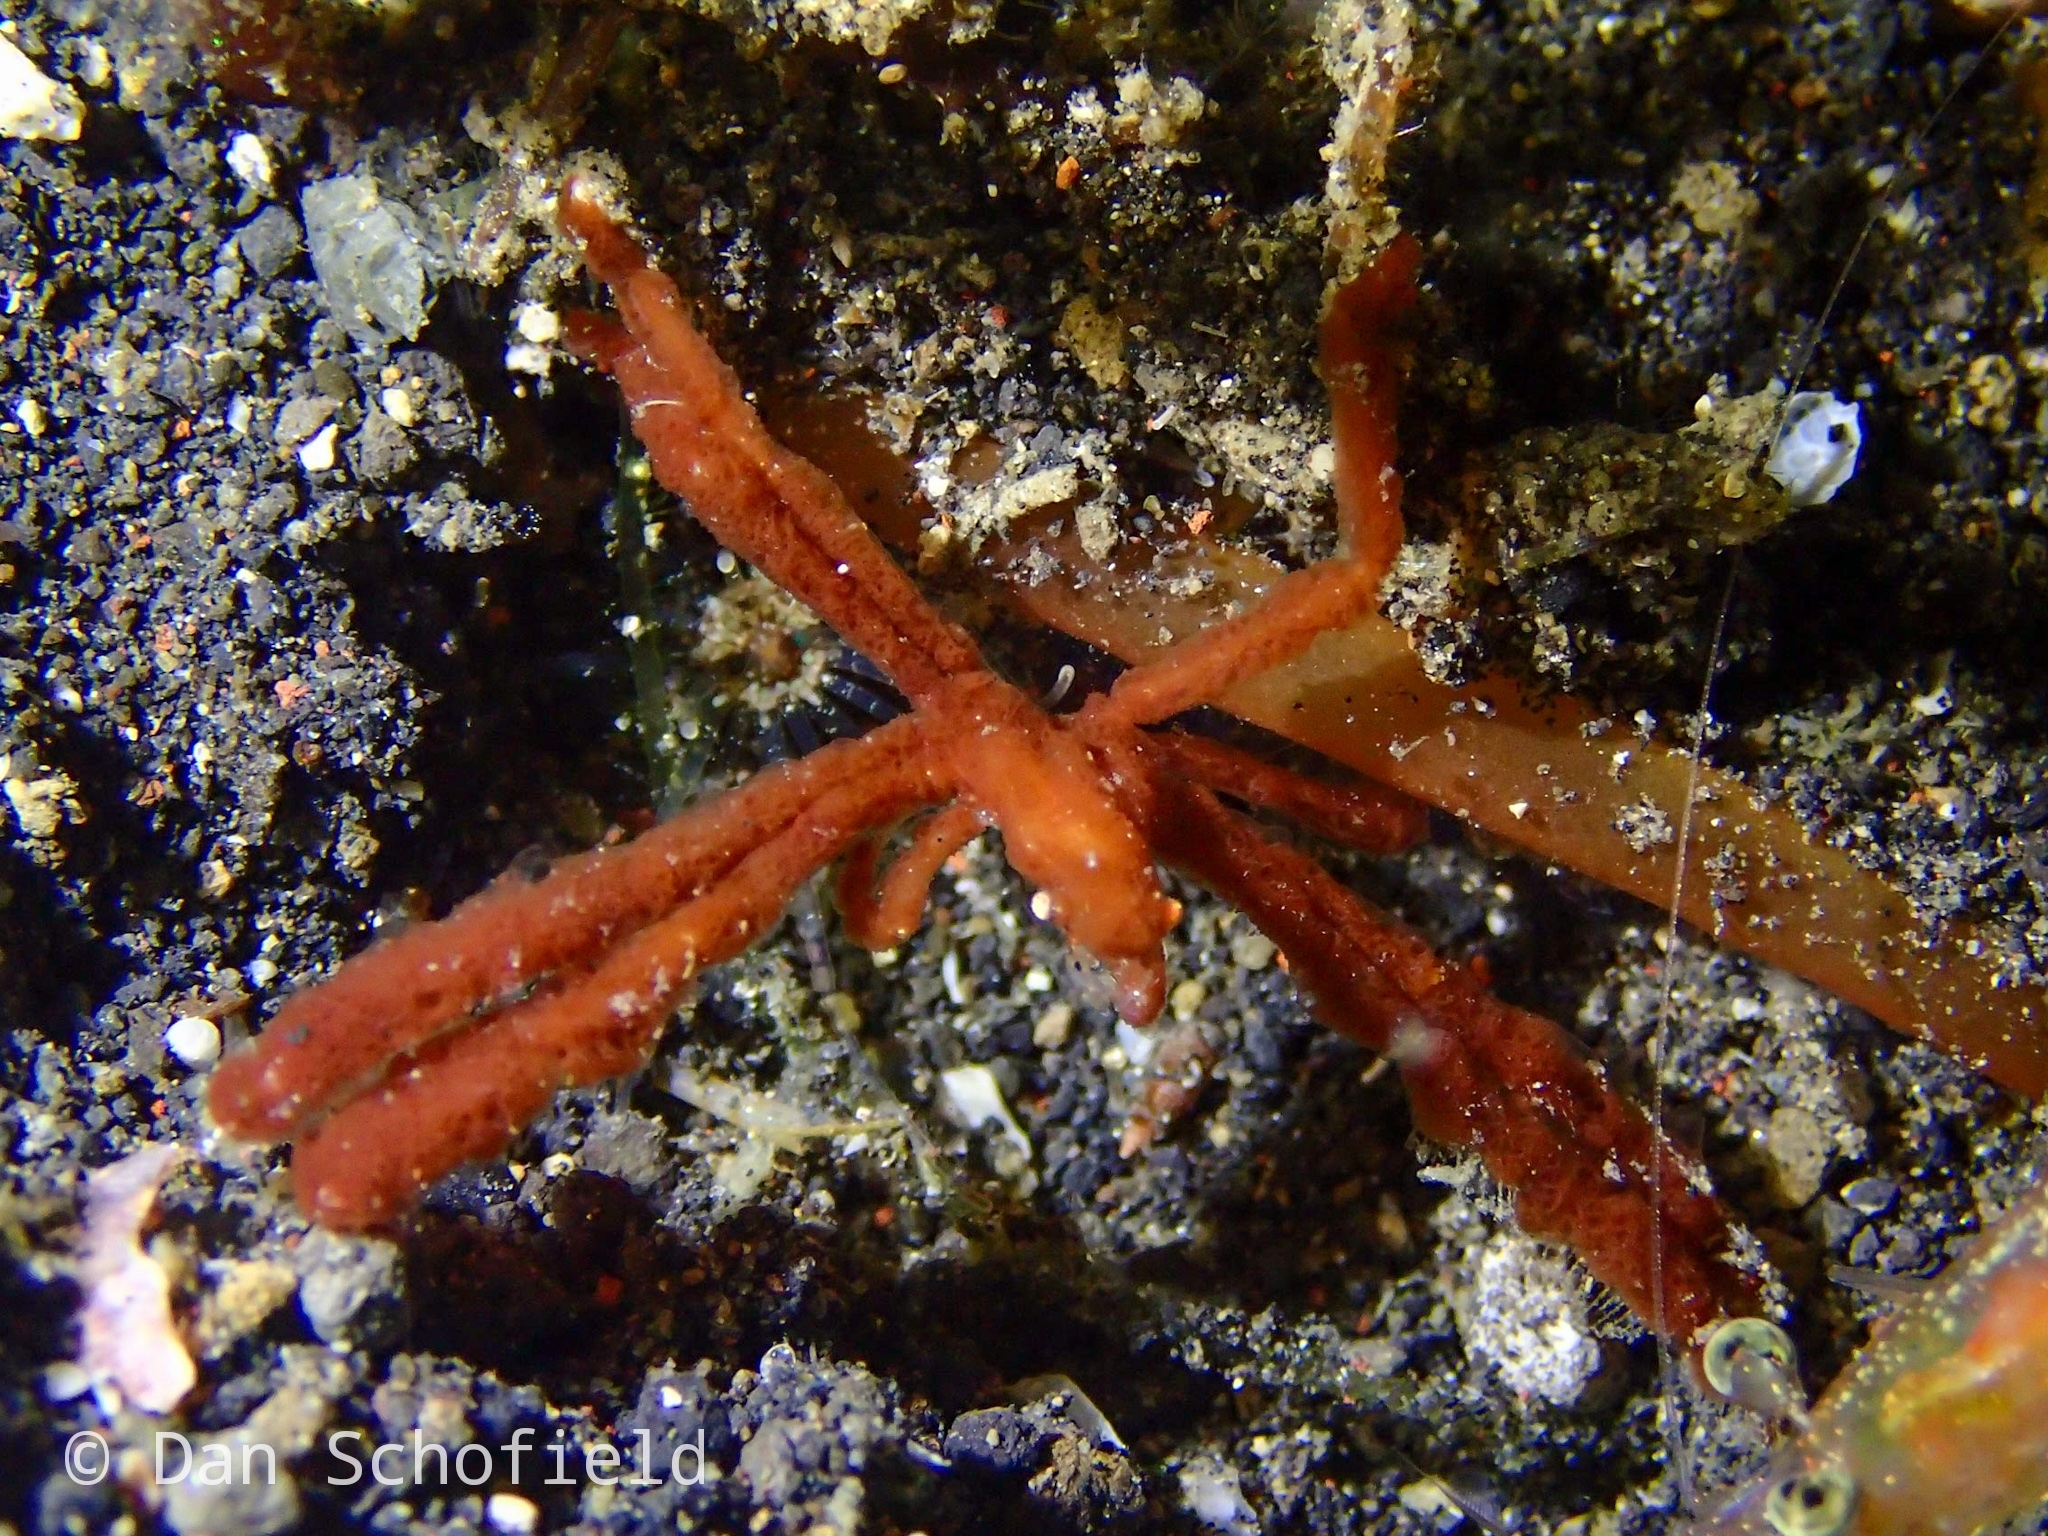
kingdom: Animalia
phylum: Arthropoda
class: Malacostraca
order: Decapoda
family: Inachidae
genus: Achaeus
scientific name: Achaeus japonicus
